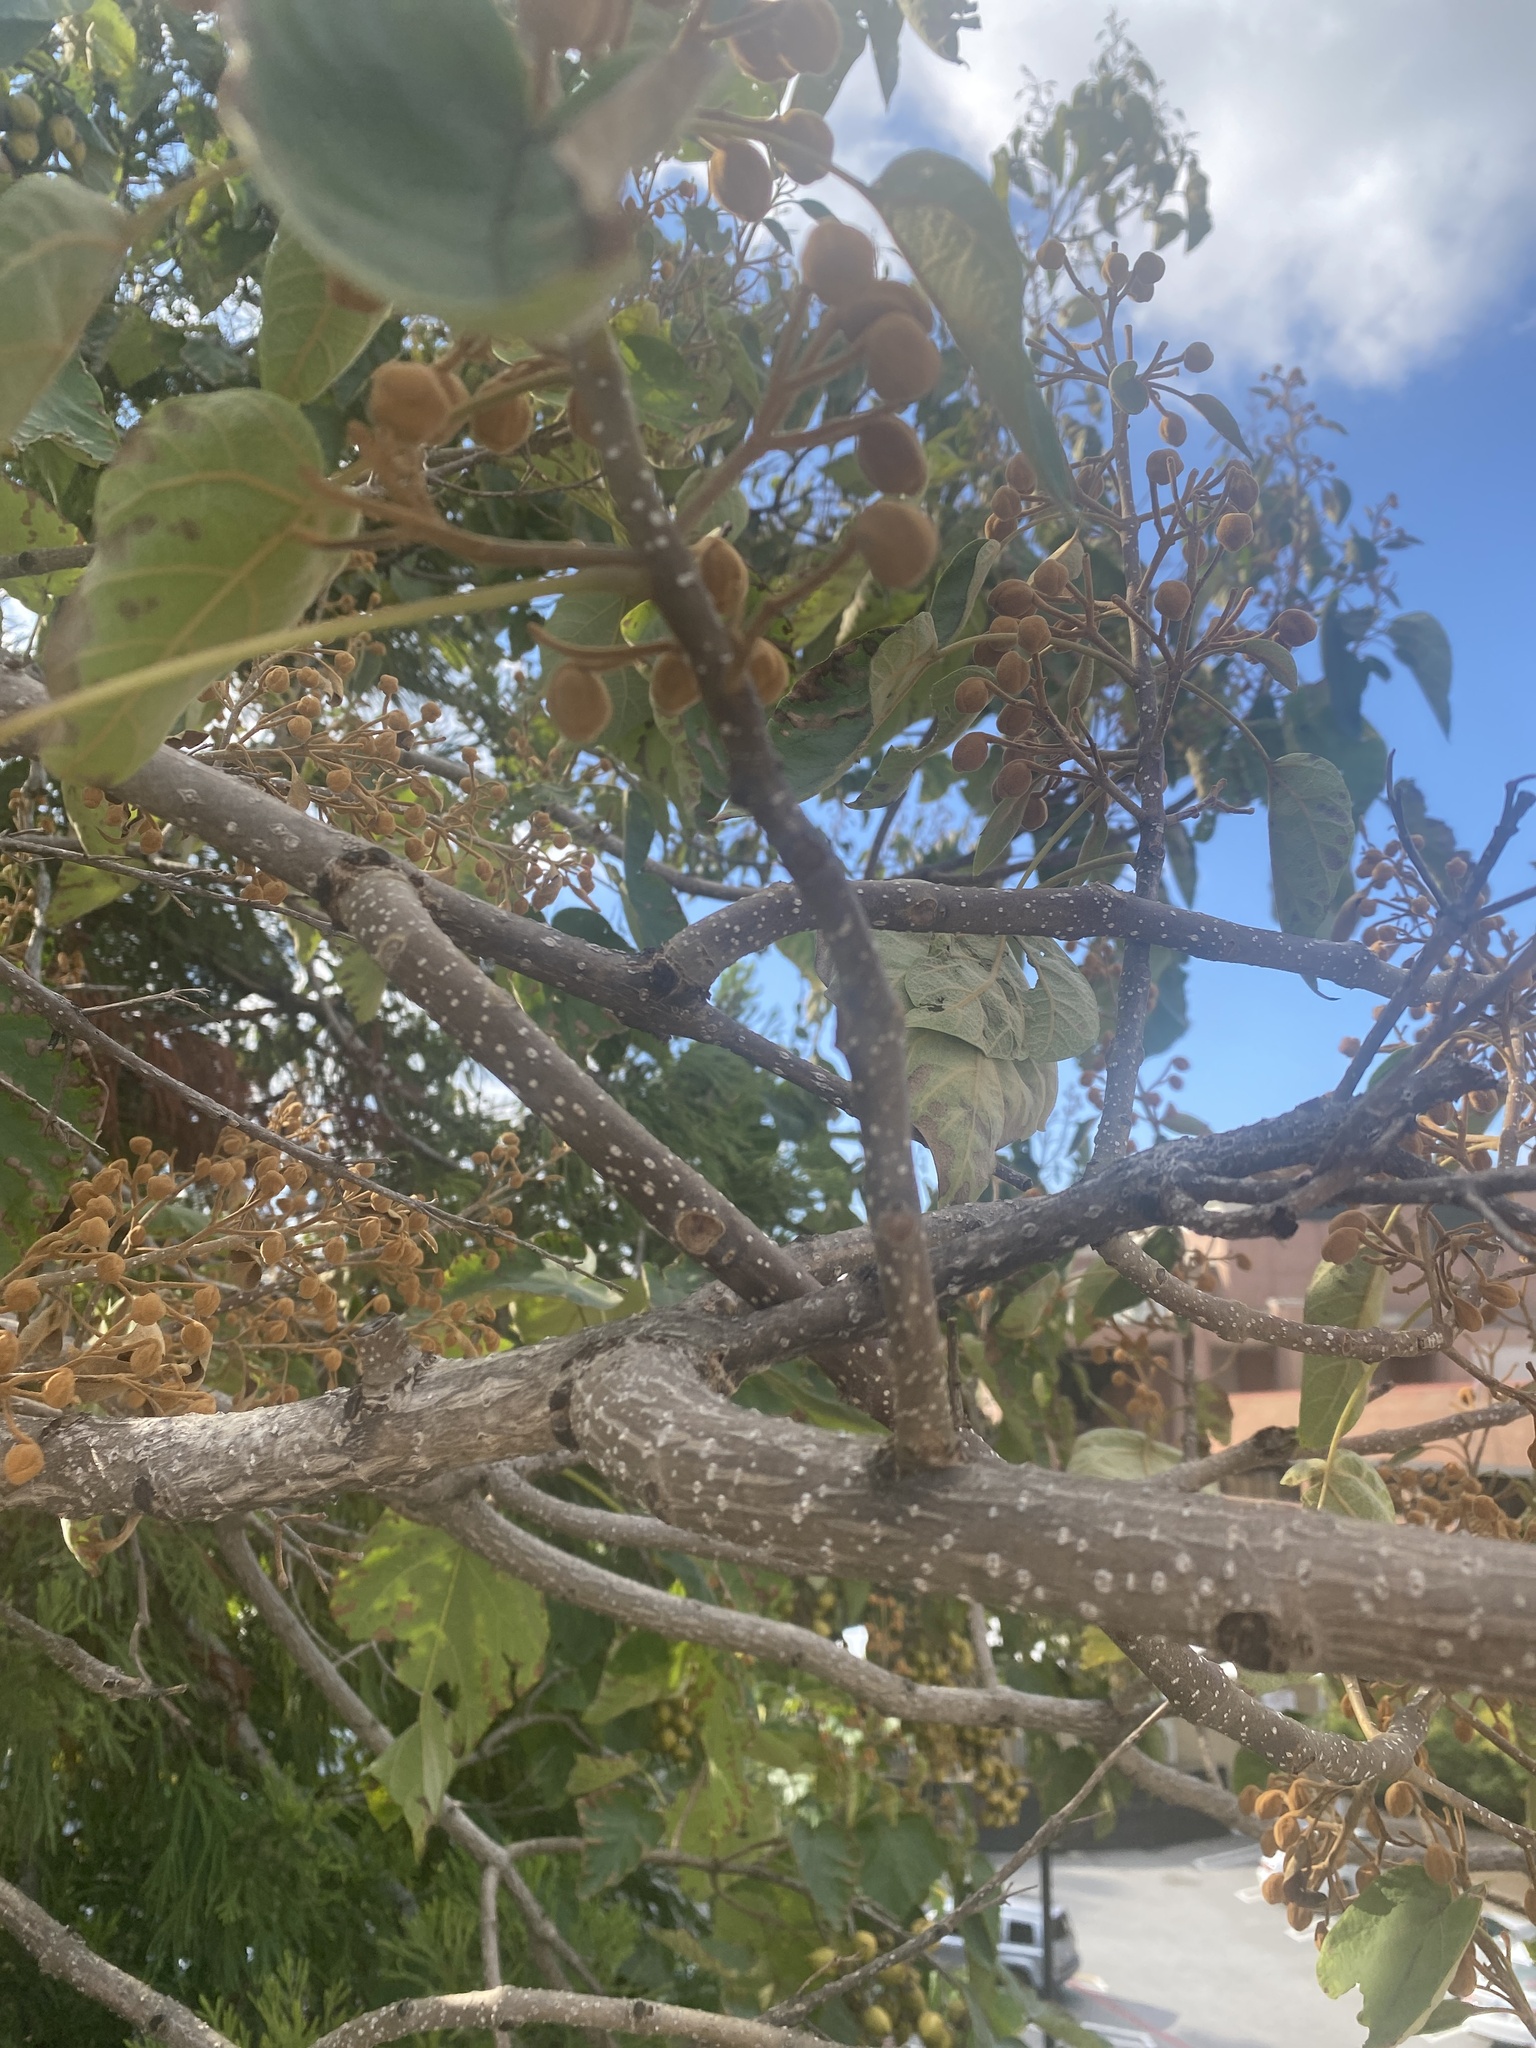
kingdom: Plantae
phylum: Tracheophyta
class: Magnoliopsida
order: Lamiales
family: Paulowniaceae
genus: Paulownia
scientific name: Paulownia tomentosa
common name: Foxglove-tree
